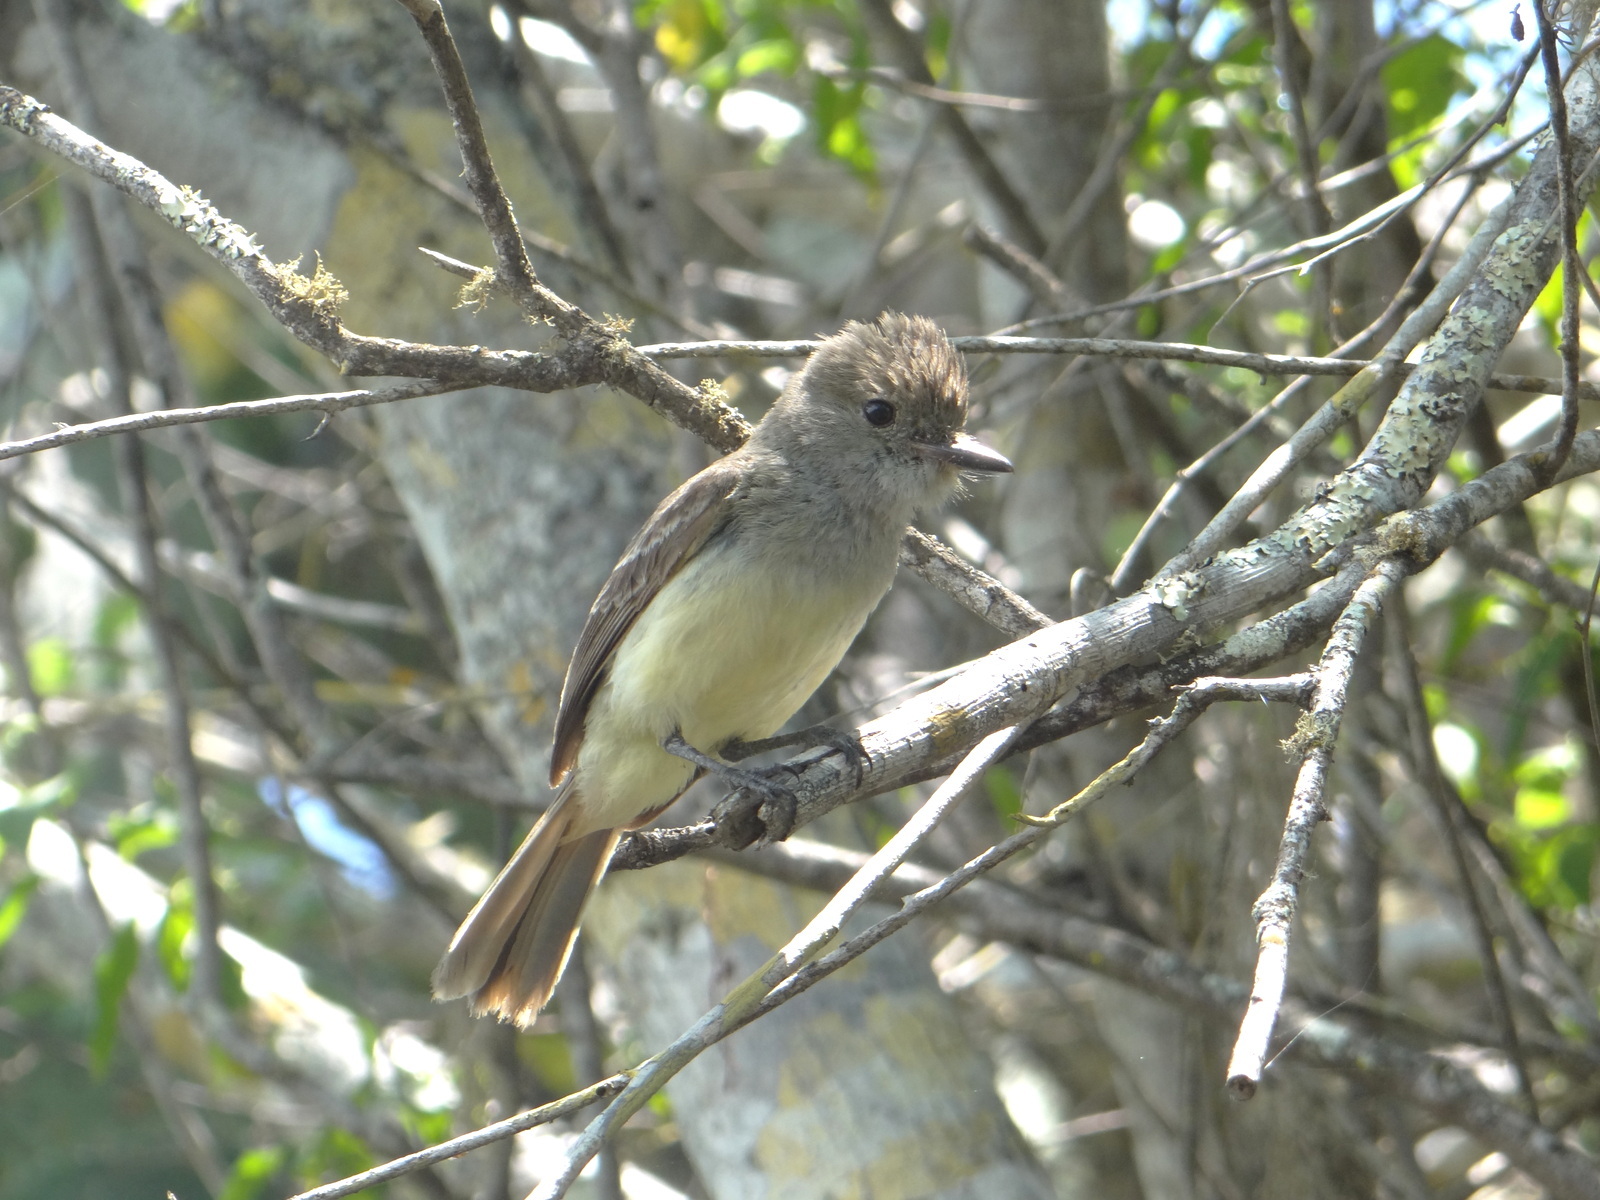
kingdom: Animalia
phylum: Chordata
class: Aves
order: Passeriformes
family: Tyrannidae
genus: Myiarchus
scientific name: Myiarchus magnirostris
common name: Galapagos flycatcher
